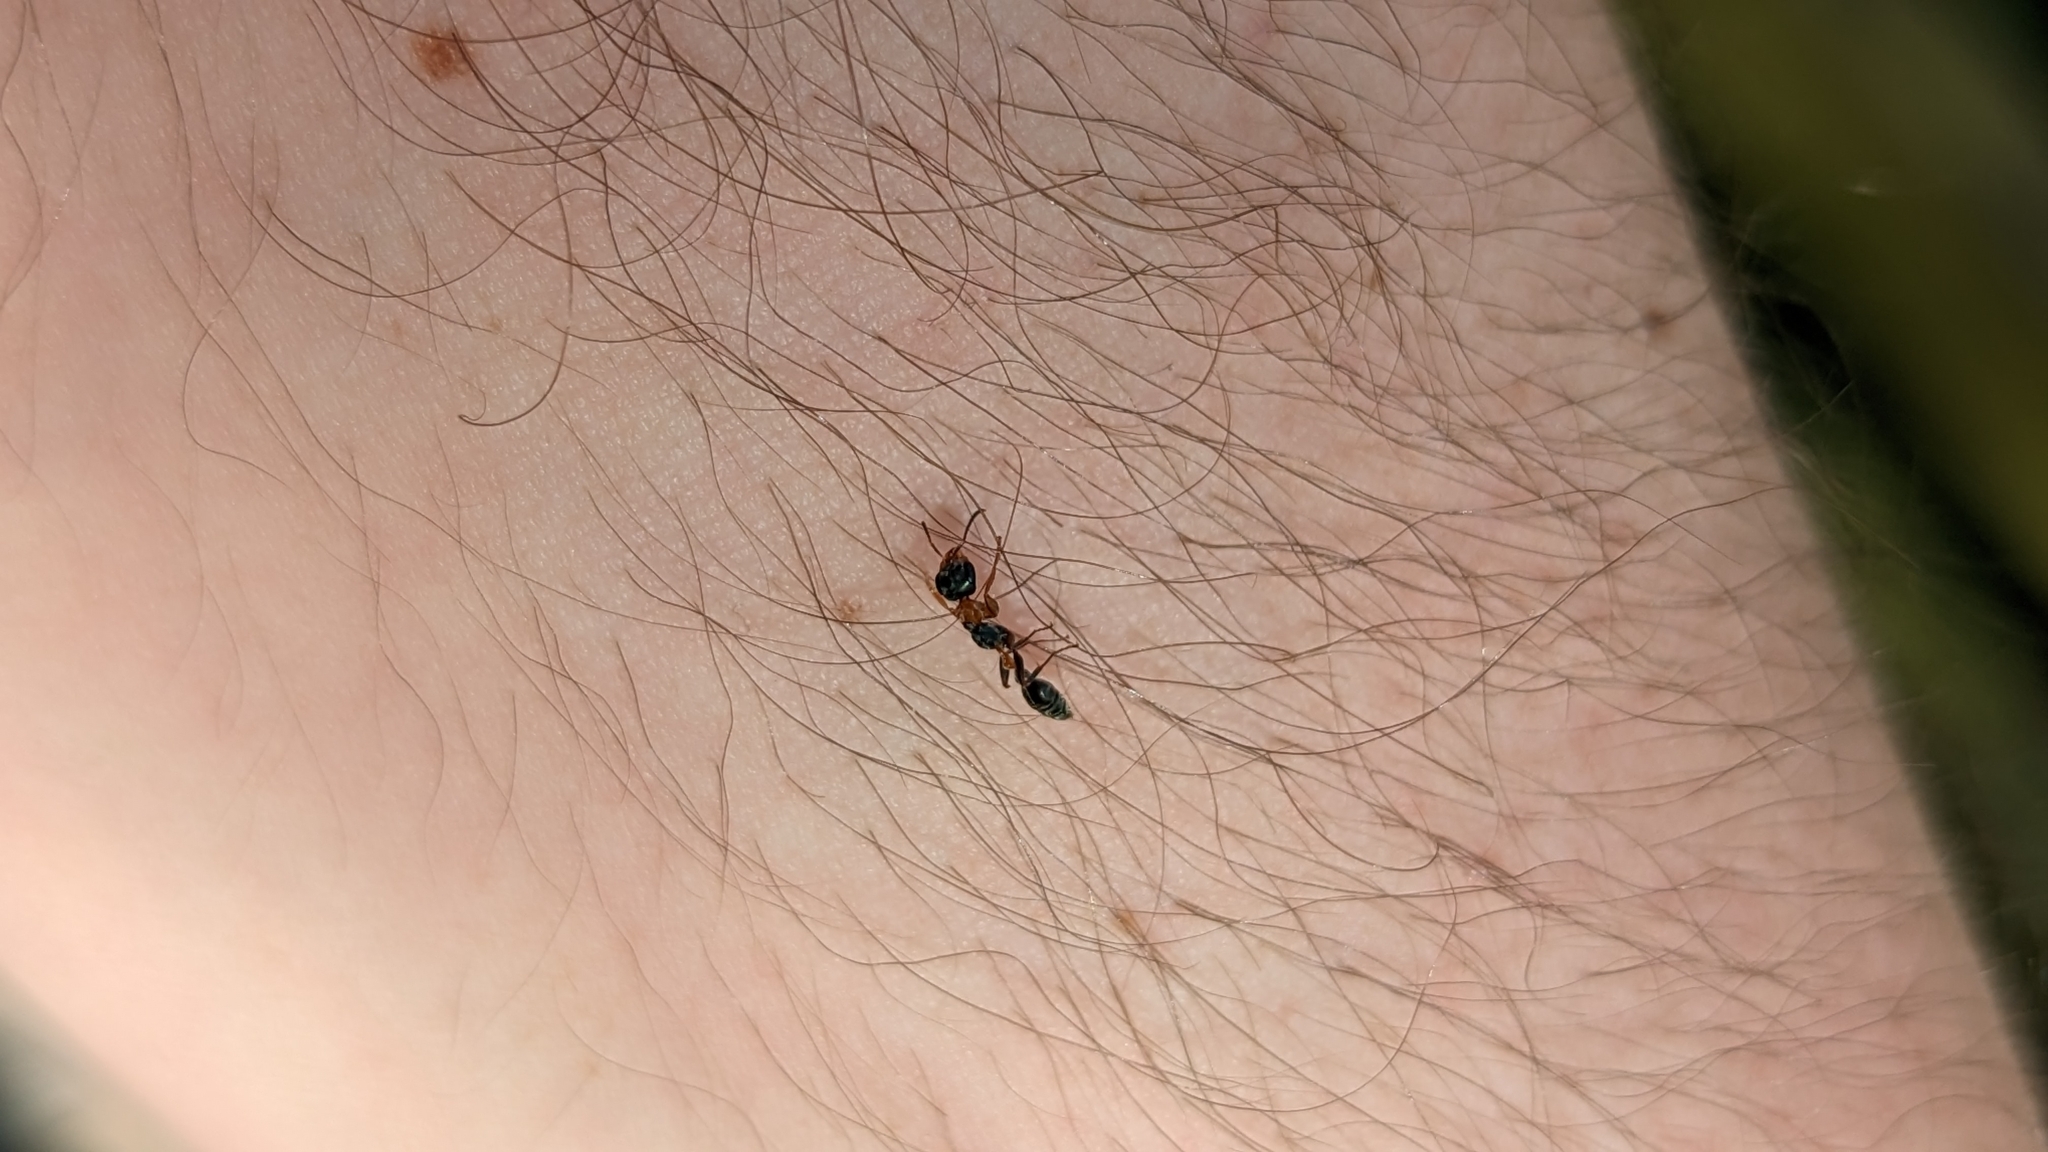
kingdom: Animalia
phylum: Arthropoda
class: Insecta
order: Hymenoptera
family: Formicidae
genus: Pseudomyrmex
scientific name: Pseudomyrmex gracilis
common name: Graceful twig ant
